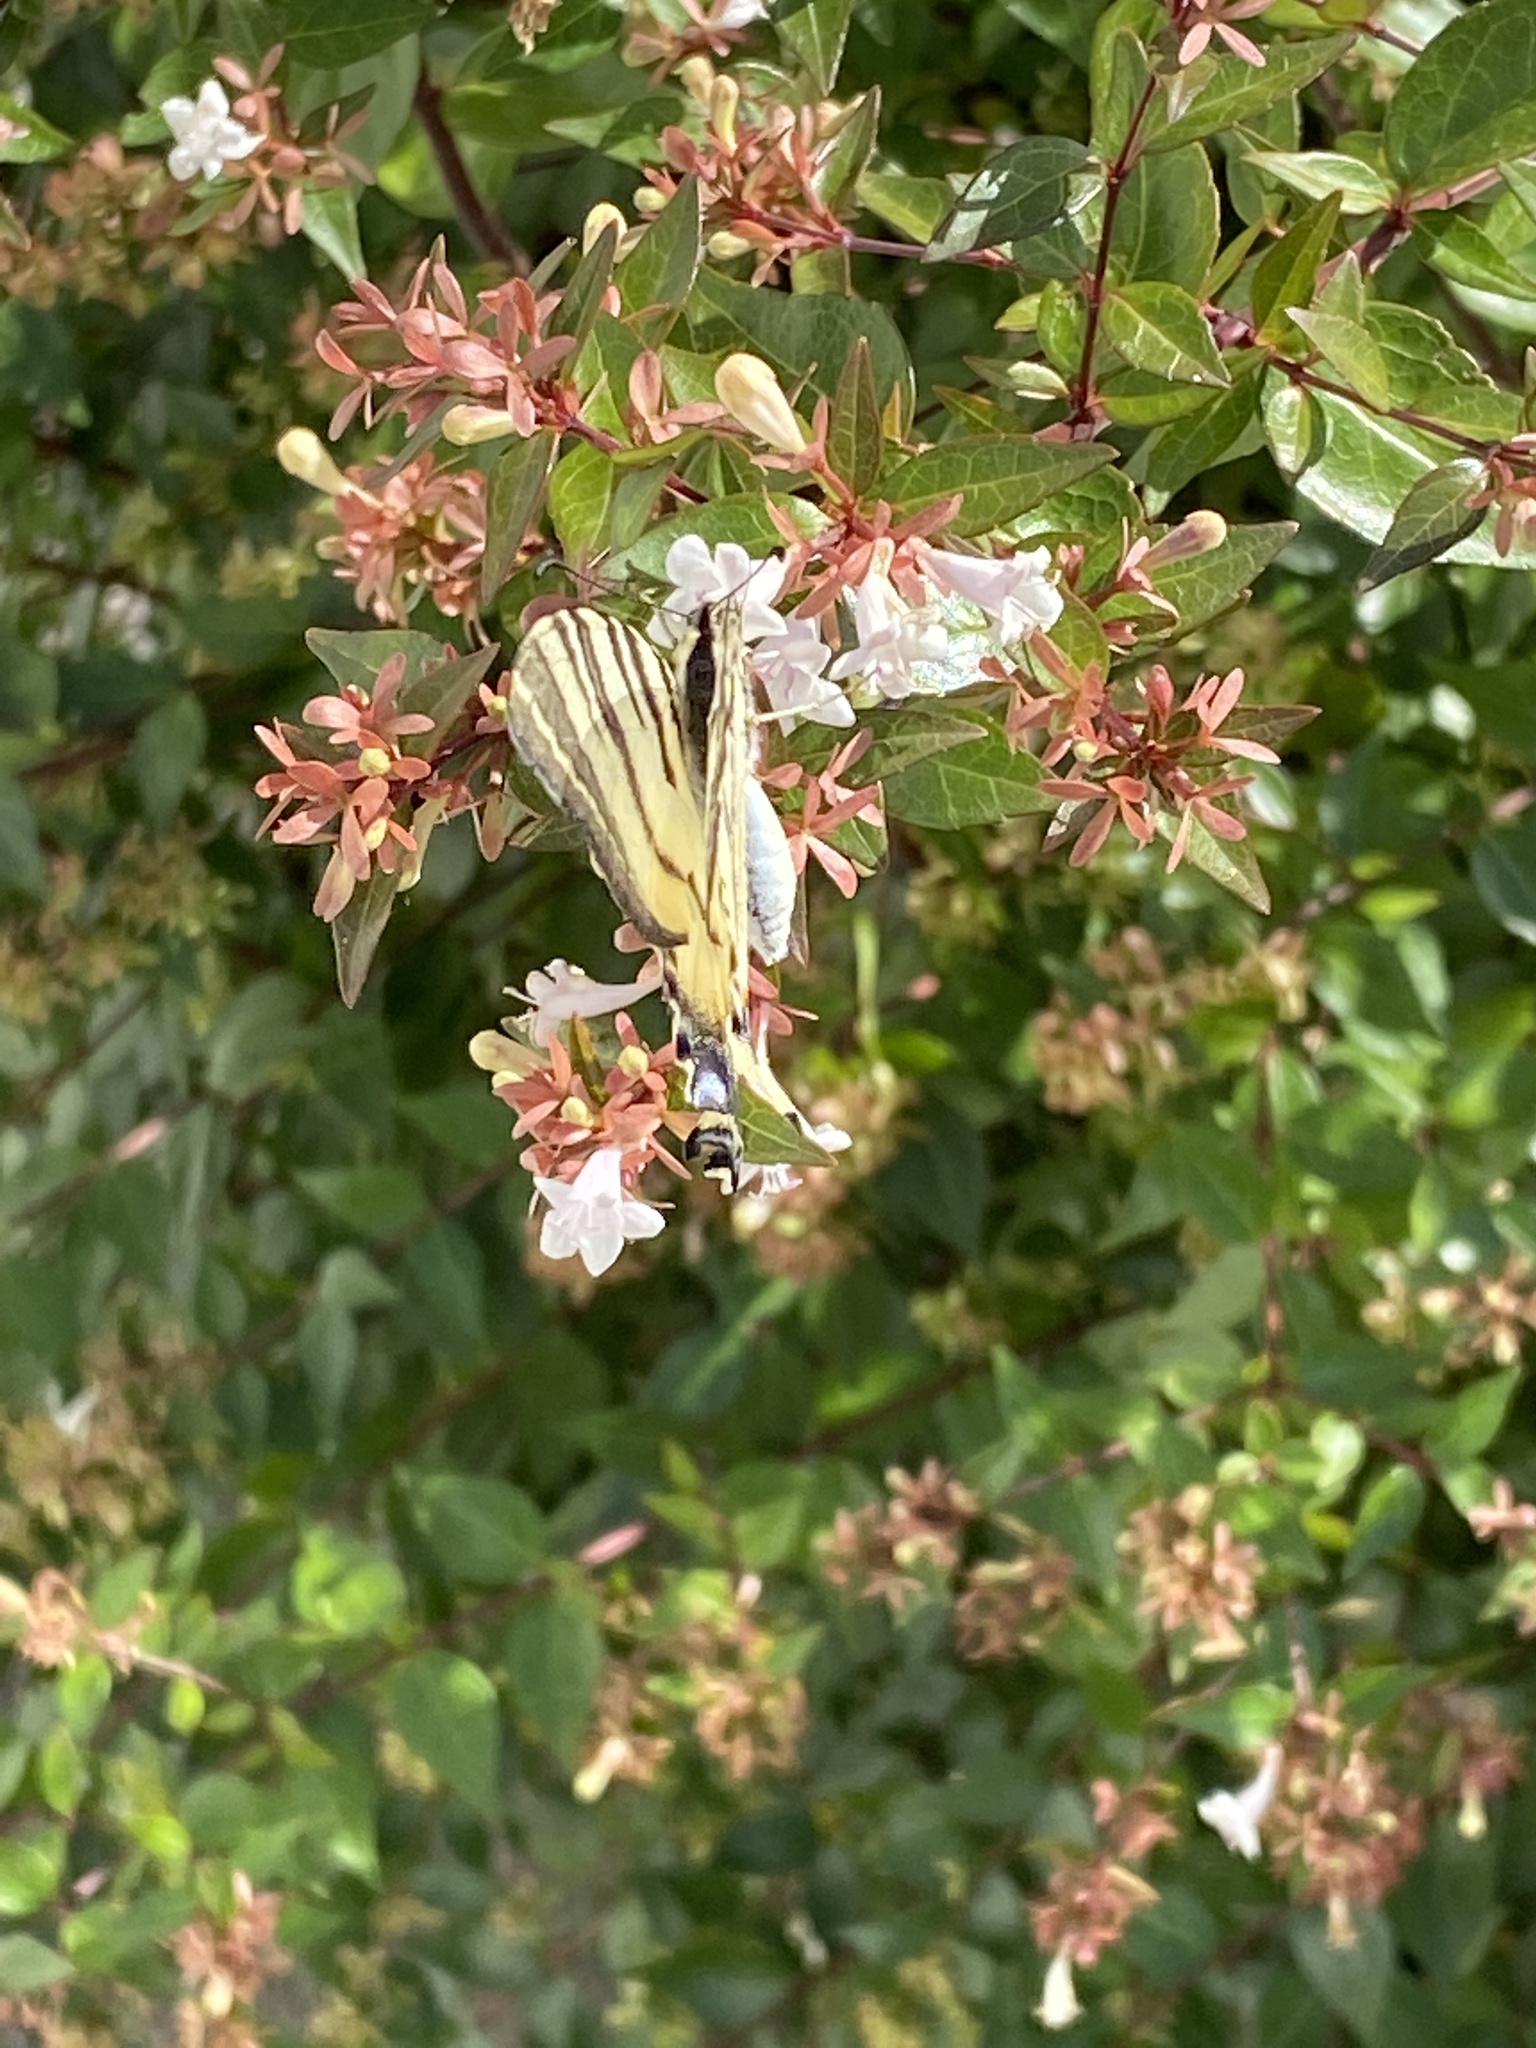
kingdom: Animalia
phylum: Arthropoda
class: Insecta
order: Lepidoptera
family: Papilionidae
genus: Iphiclides
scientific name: Iphiclides podalirius
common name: Scarce swallowtail
